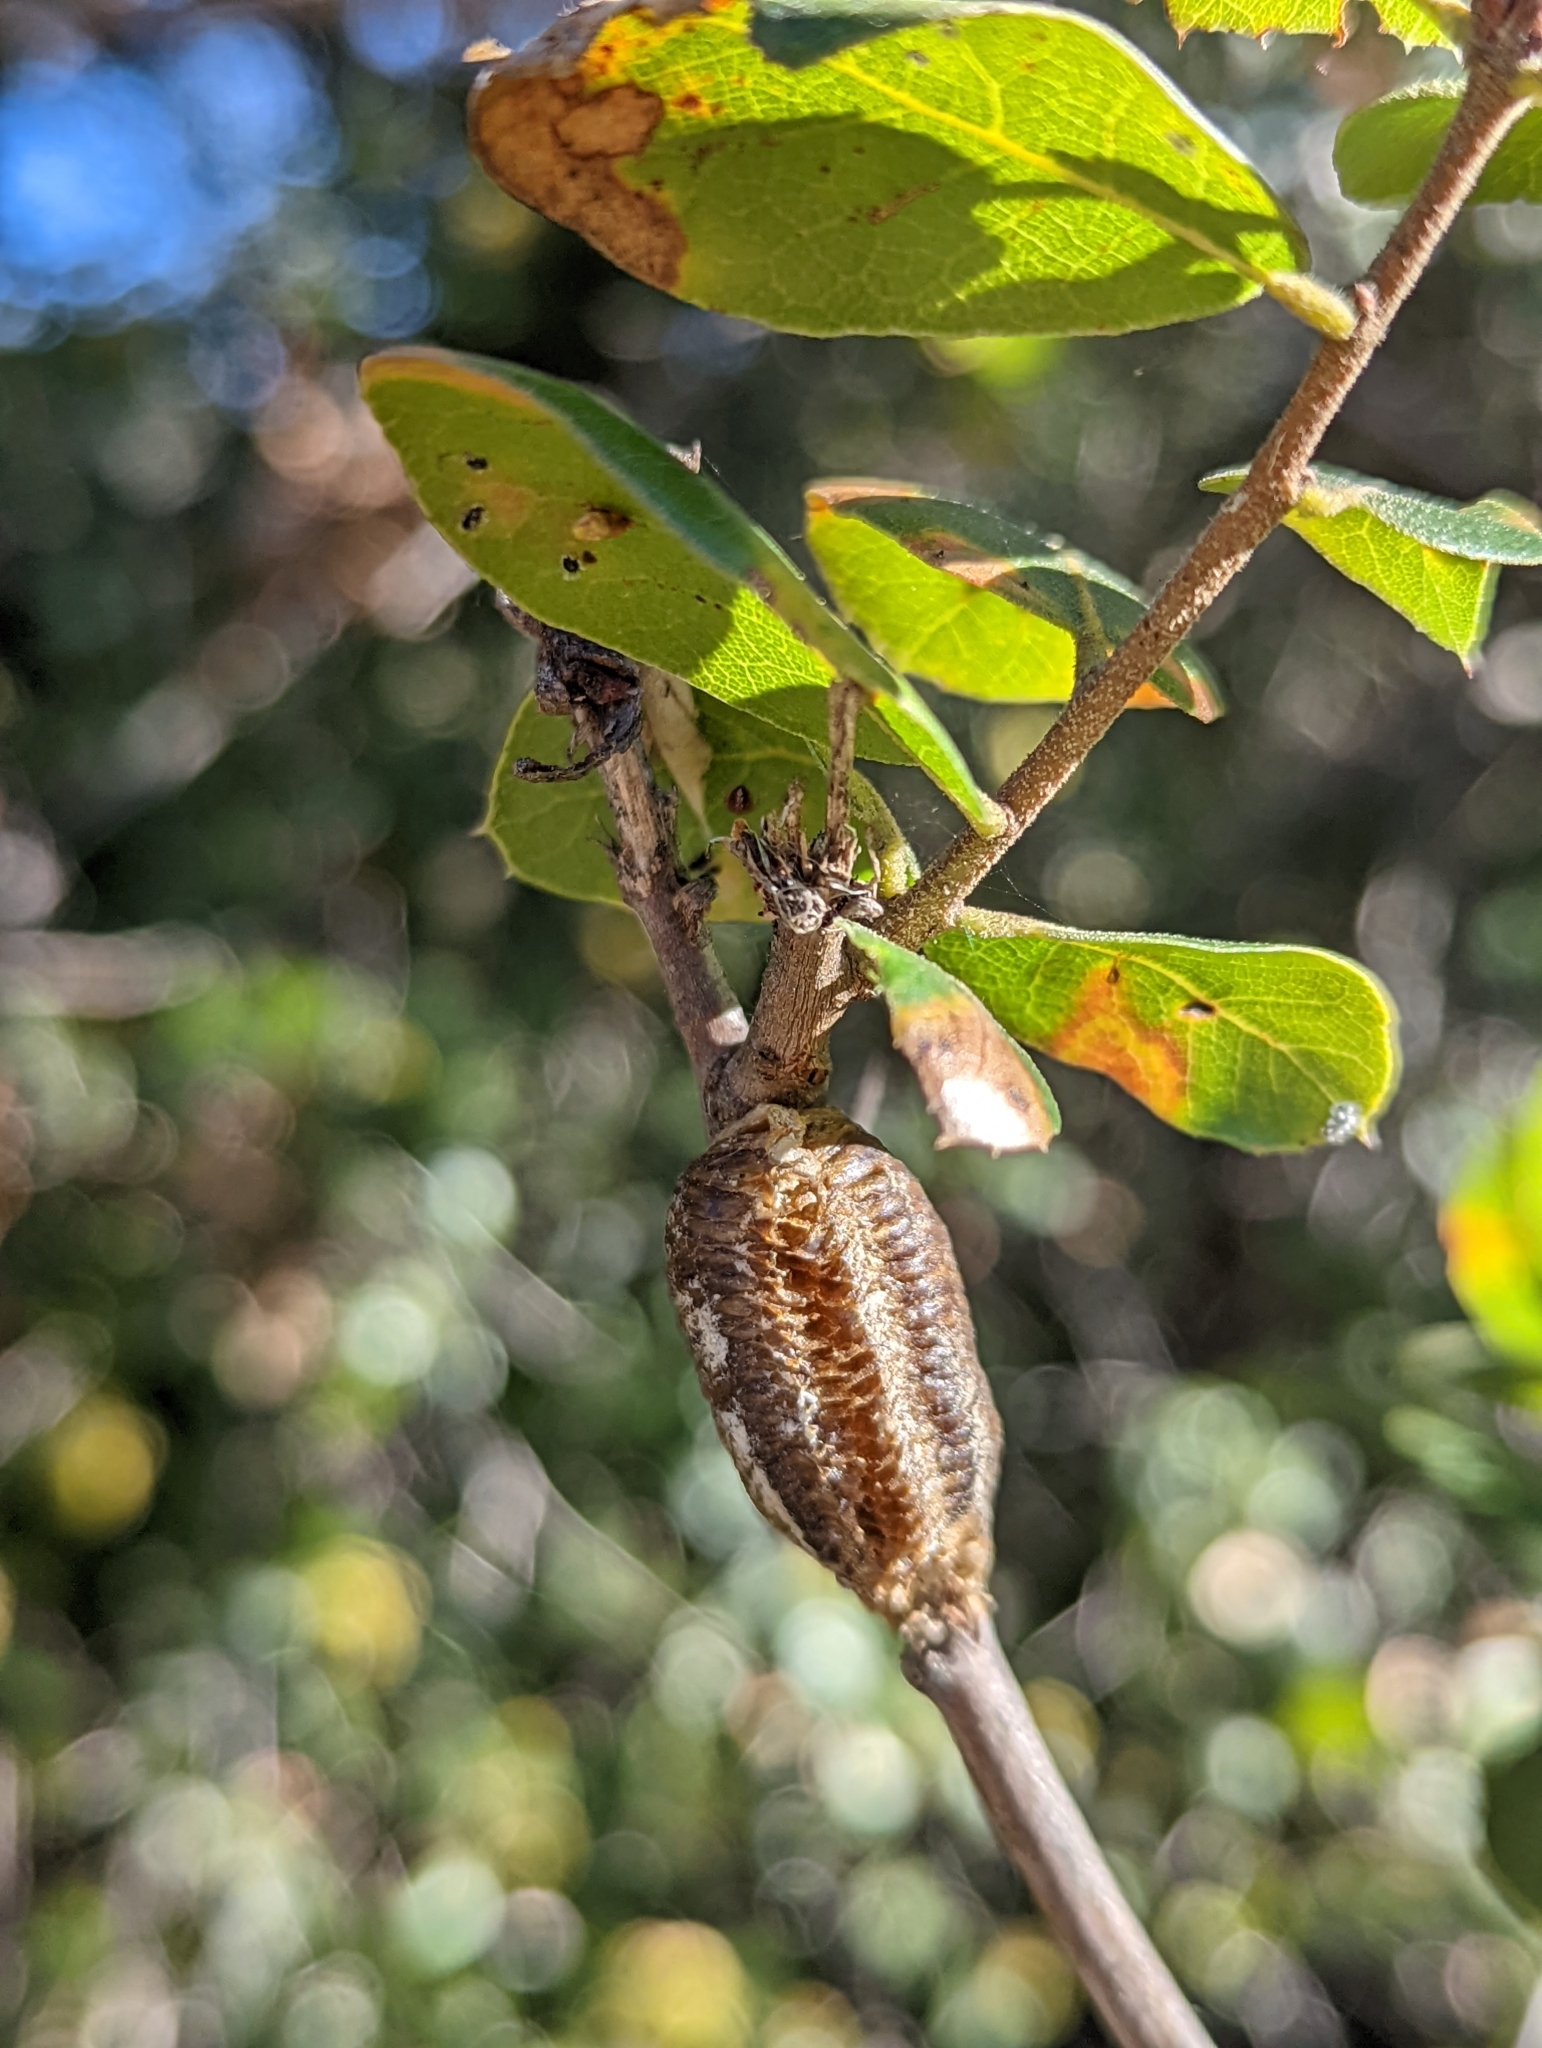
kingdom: Animalia
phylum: Arthropoda
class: Insecta
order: Mantodea
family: Mantidae
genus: Stagmomantis
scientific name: Stagmomantis limbata
